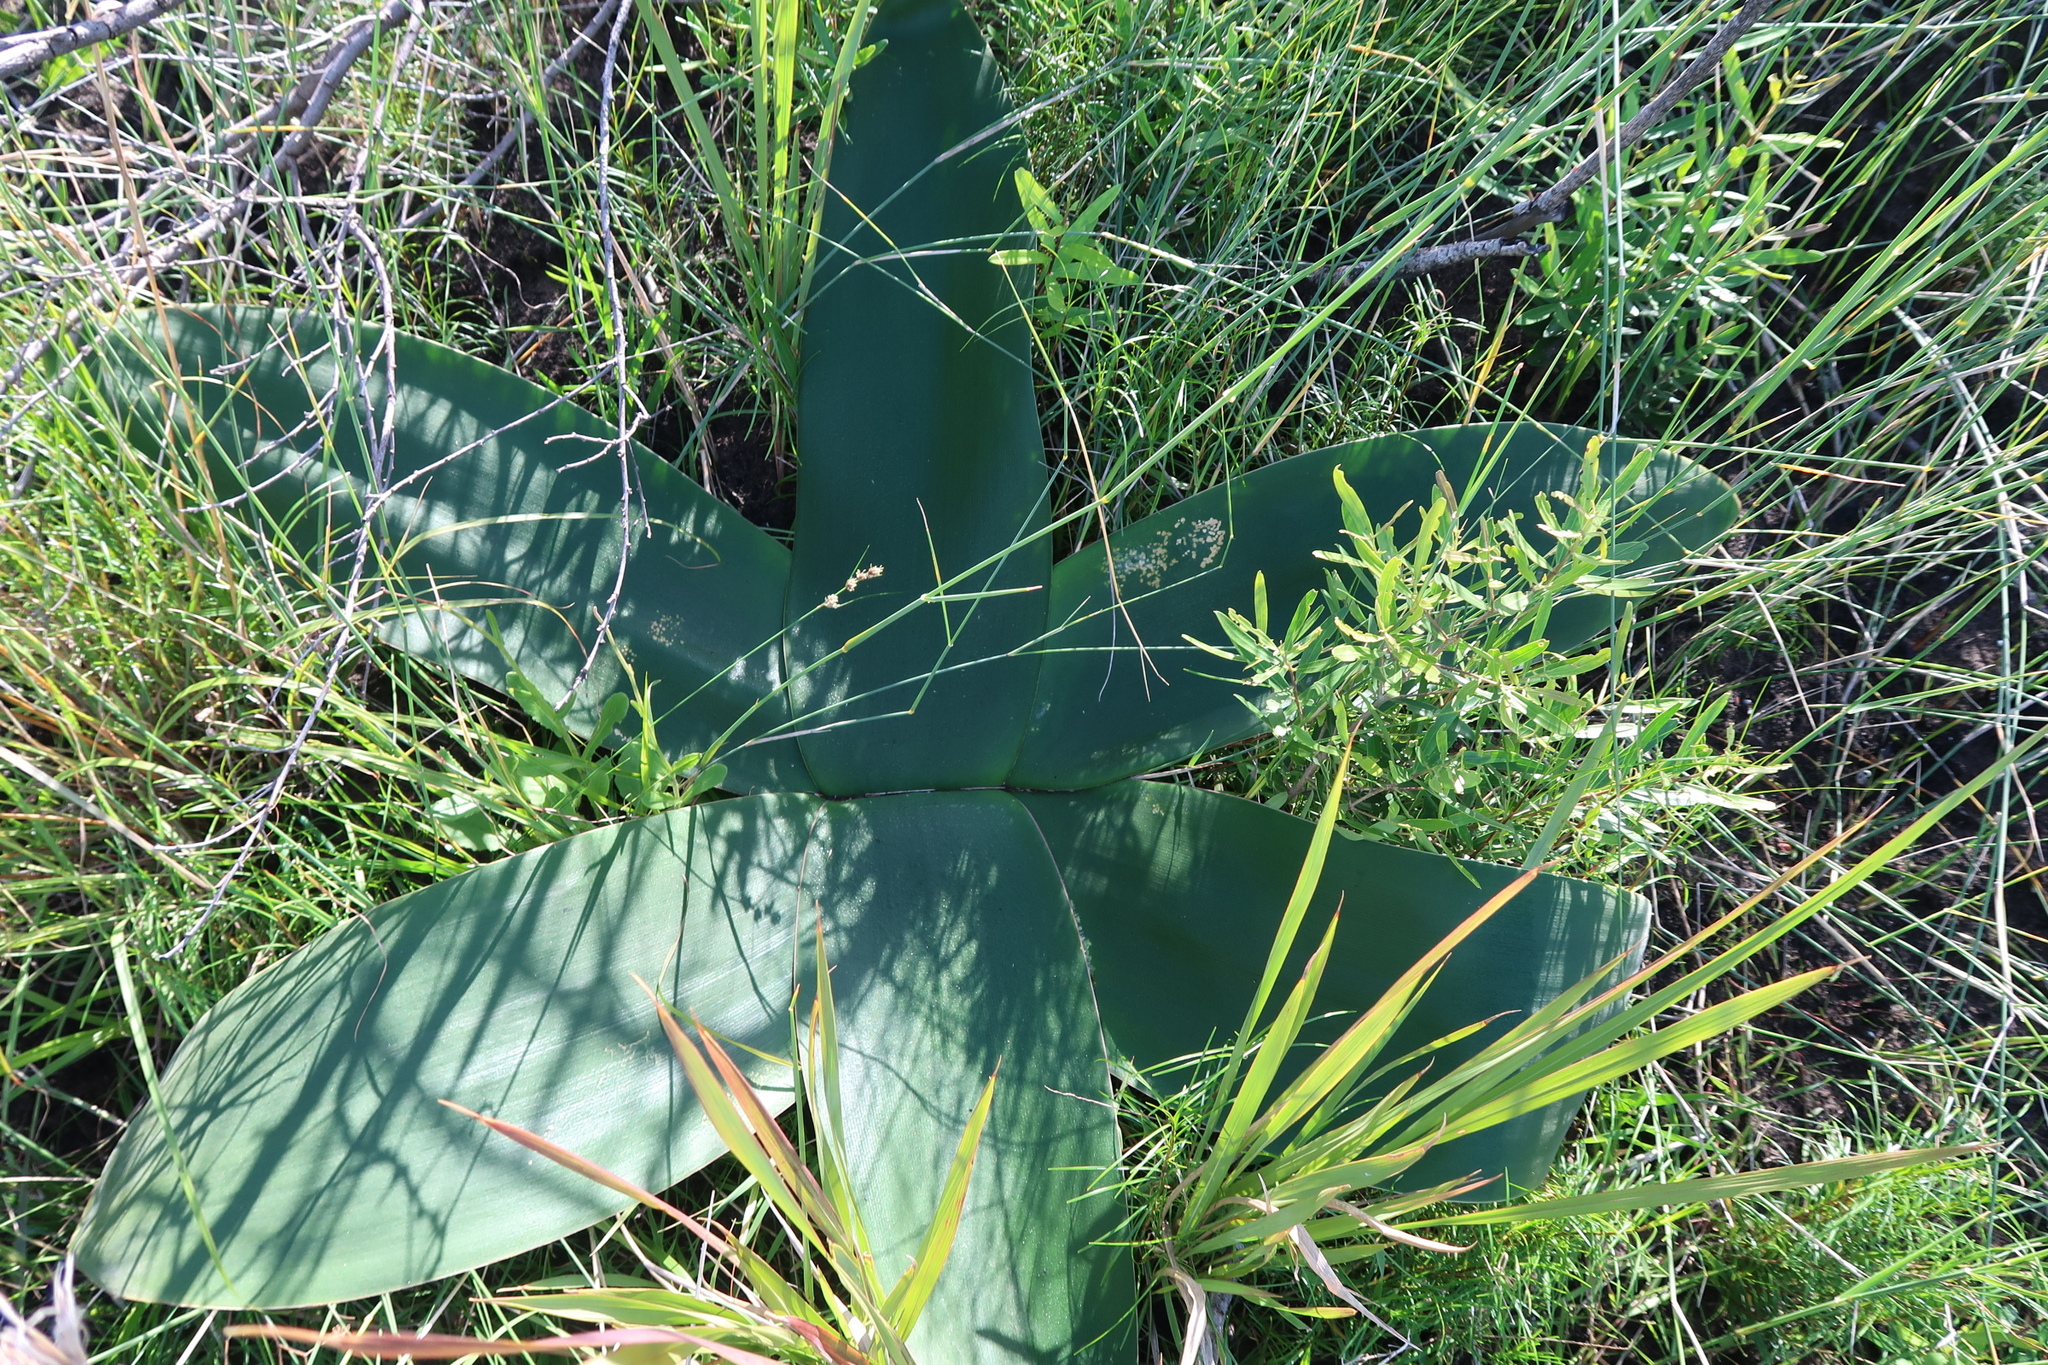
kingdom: Plantae
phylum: Tracheophyta
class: Liliopsida
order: Asparagales
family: Amaryllidaceae
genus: Brunsvigia
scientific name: Brunsvigia orientalis
